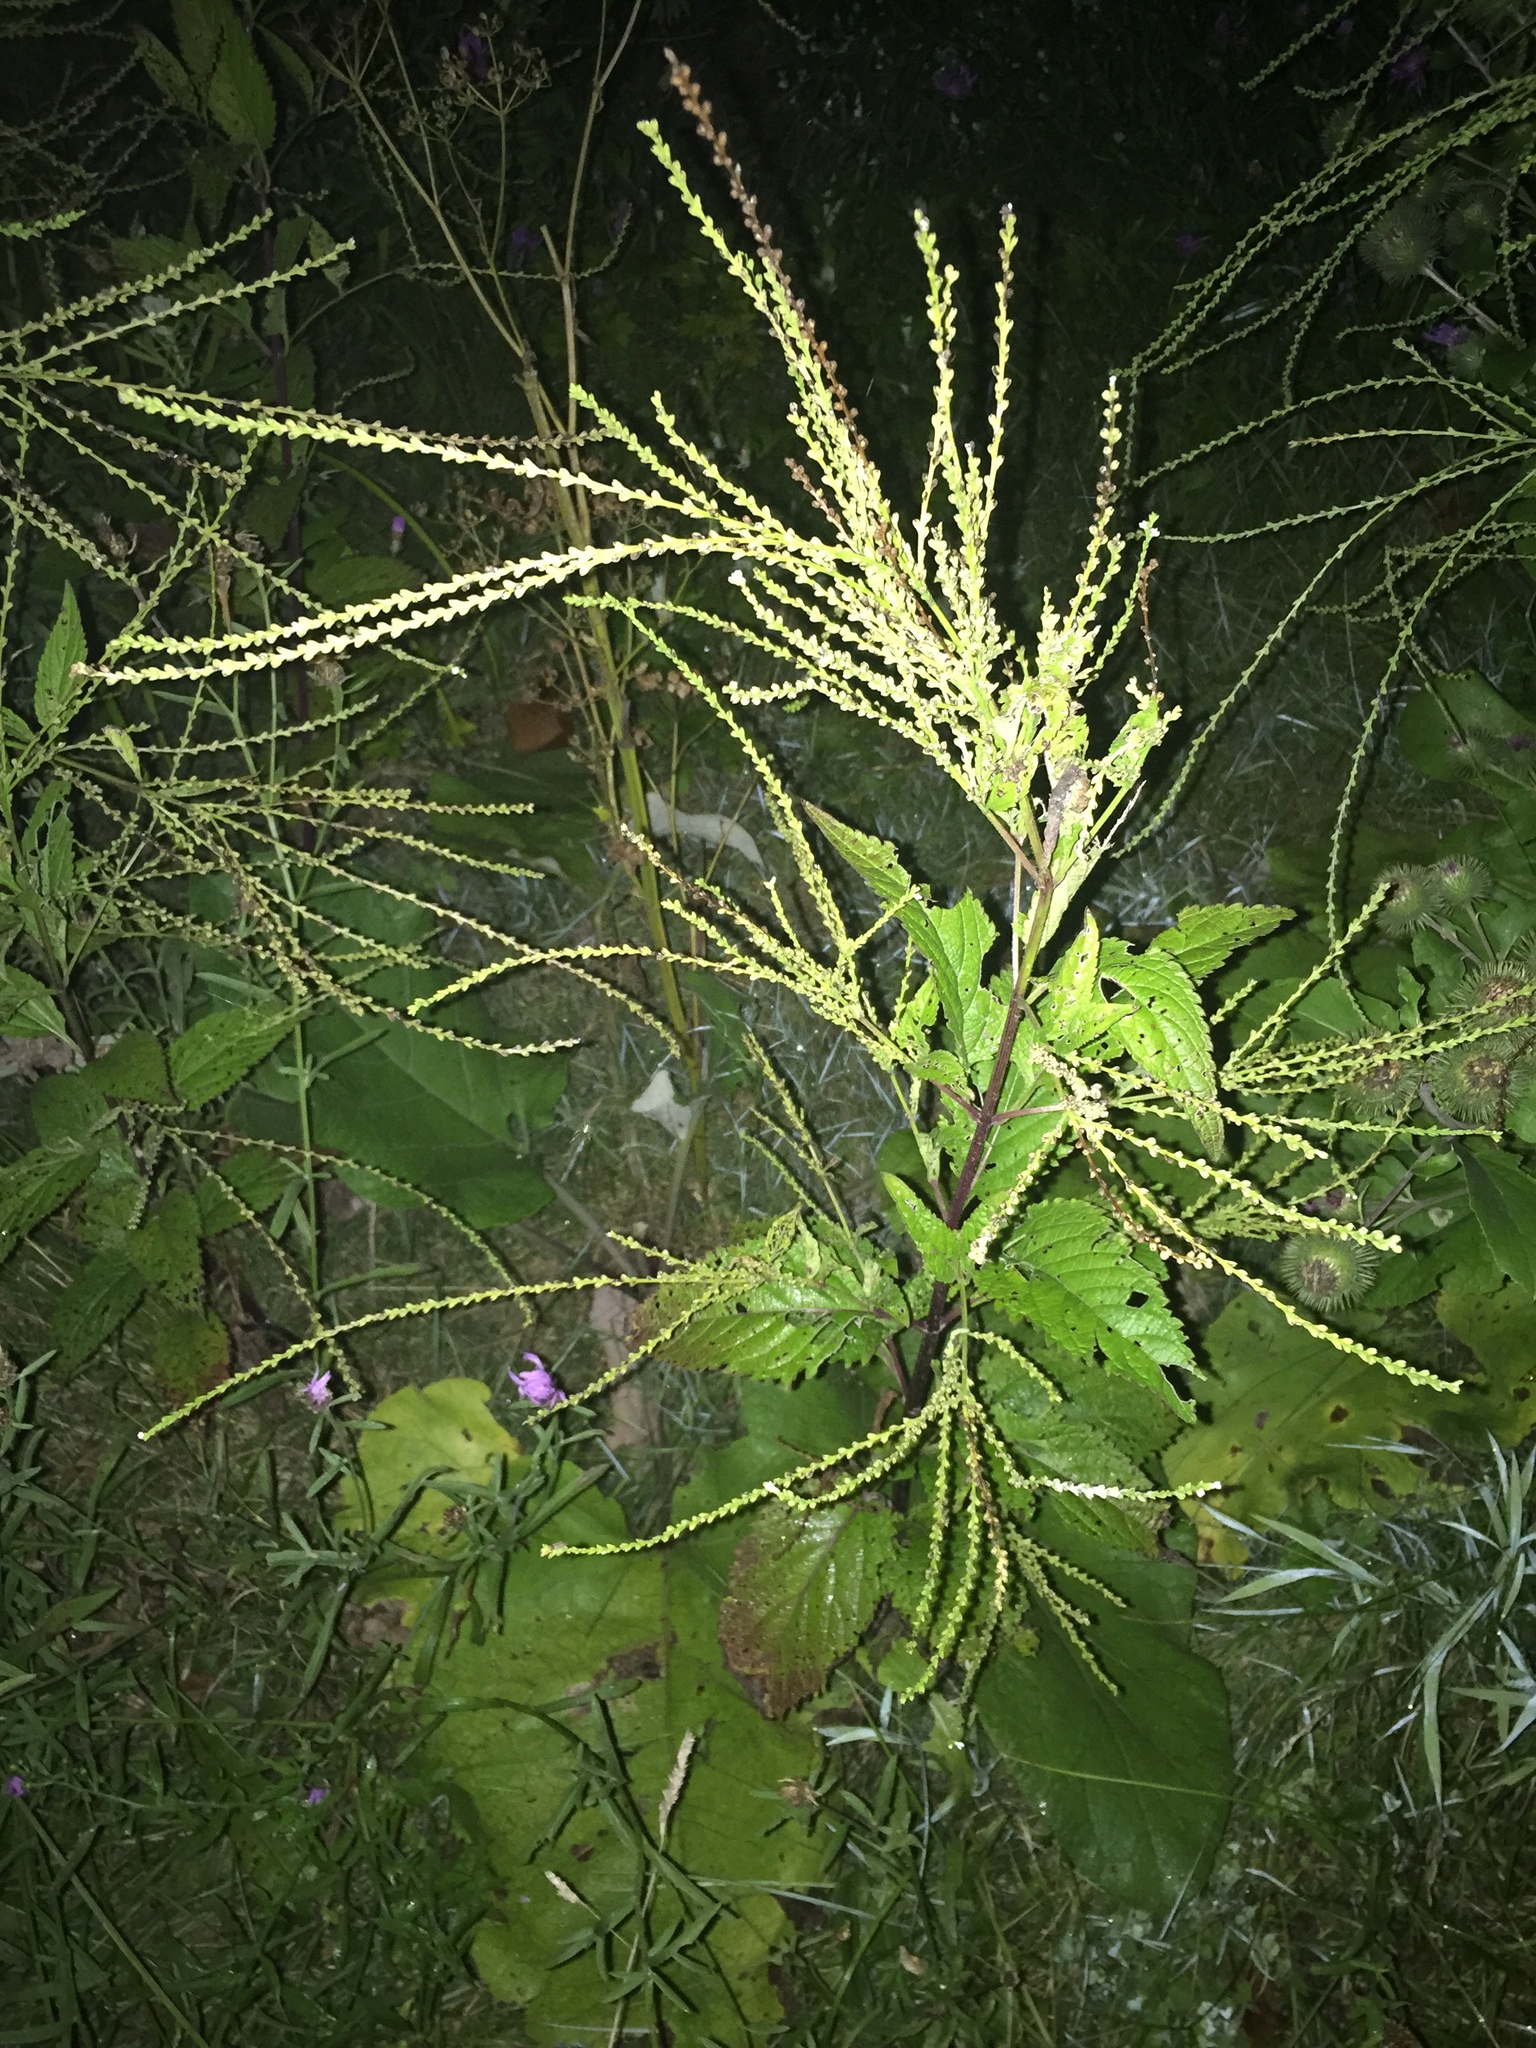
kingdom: Plantae
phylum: Tracheophyta
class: Magnoliopsida
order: Lamiales
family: Verbenaceae
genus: Verbena
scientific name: Verbena urticifolia
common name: Nettle-leaved vervain
